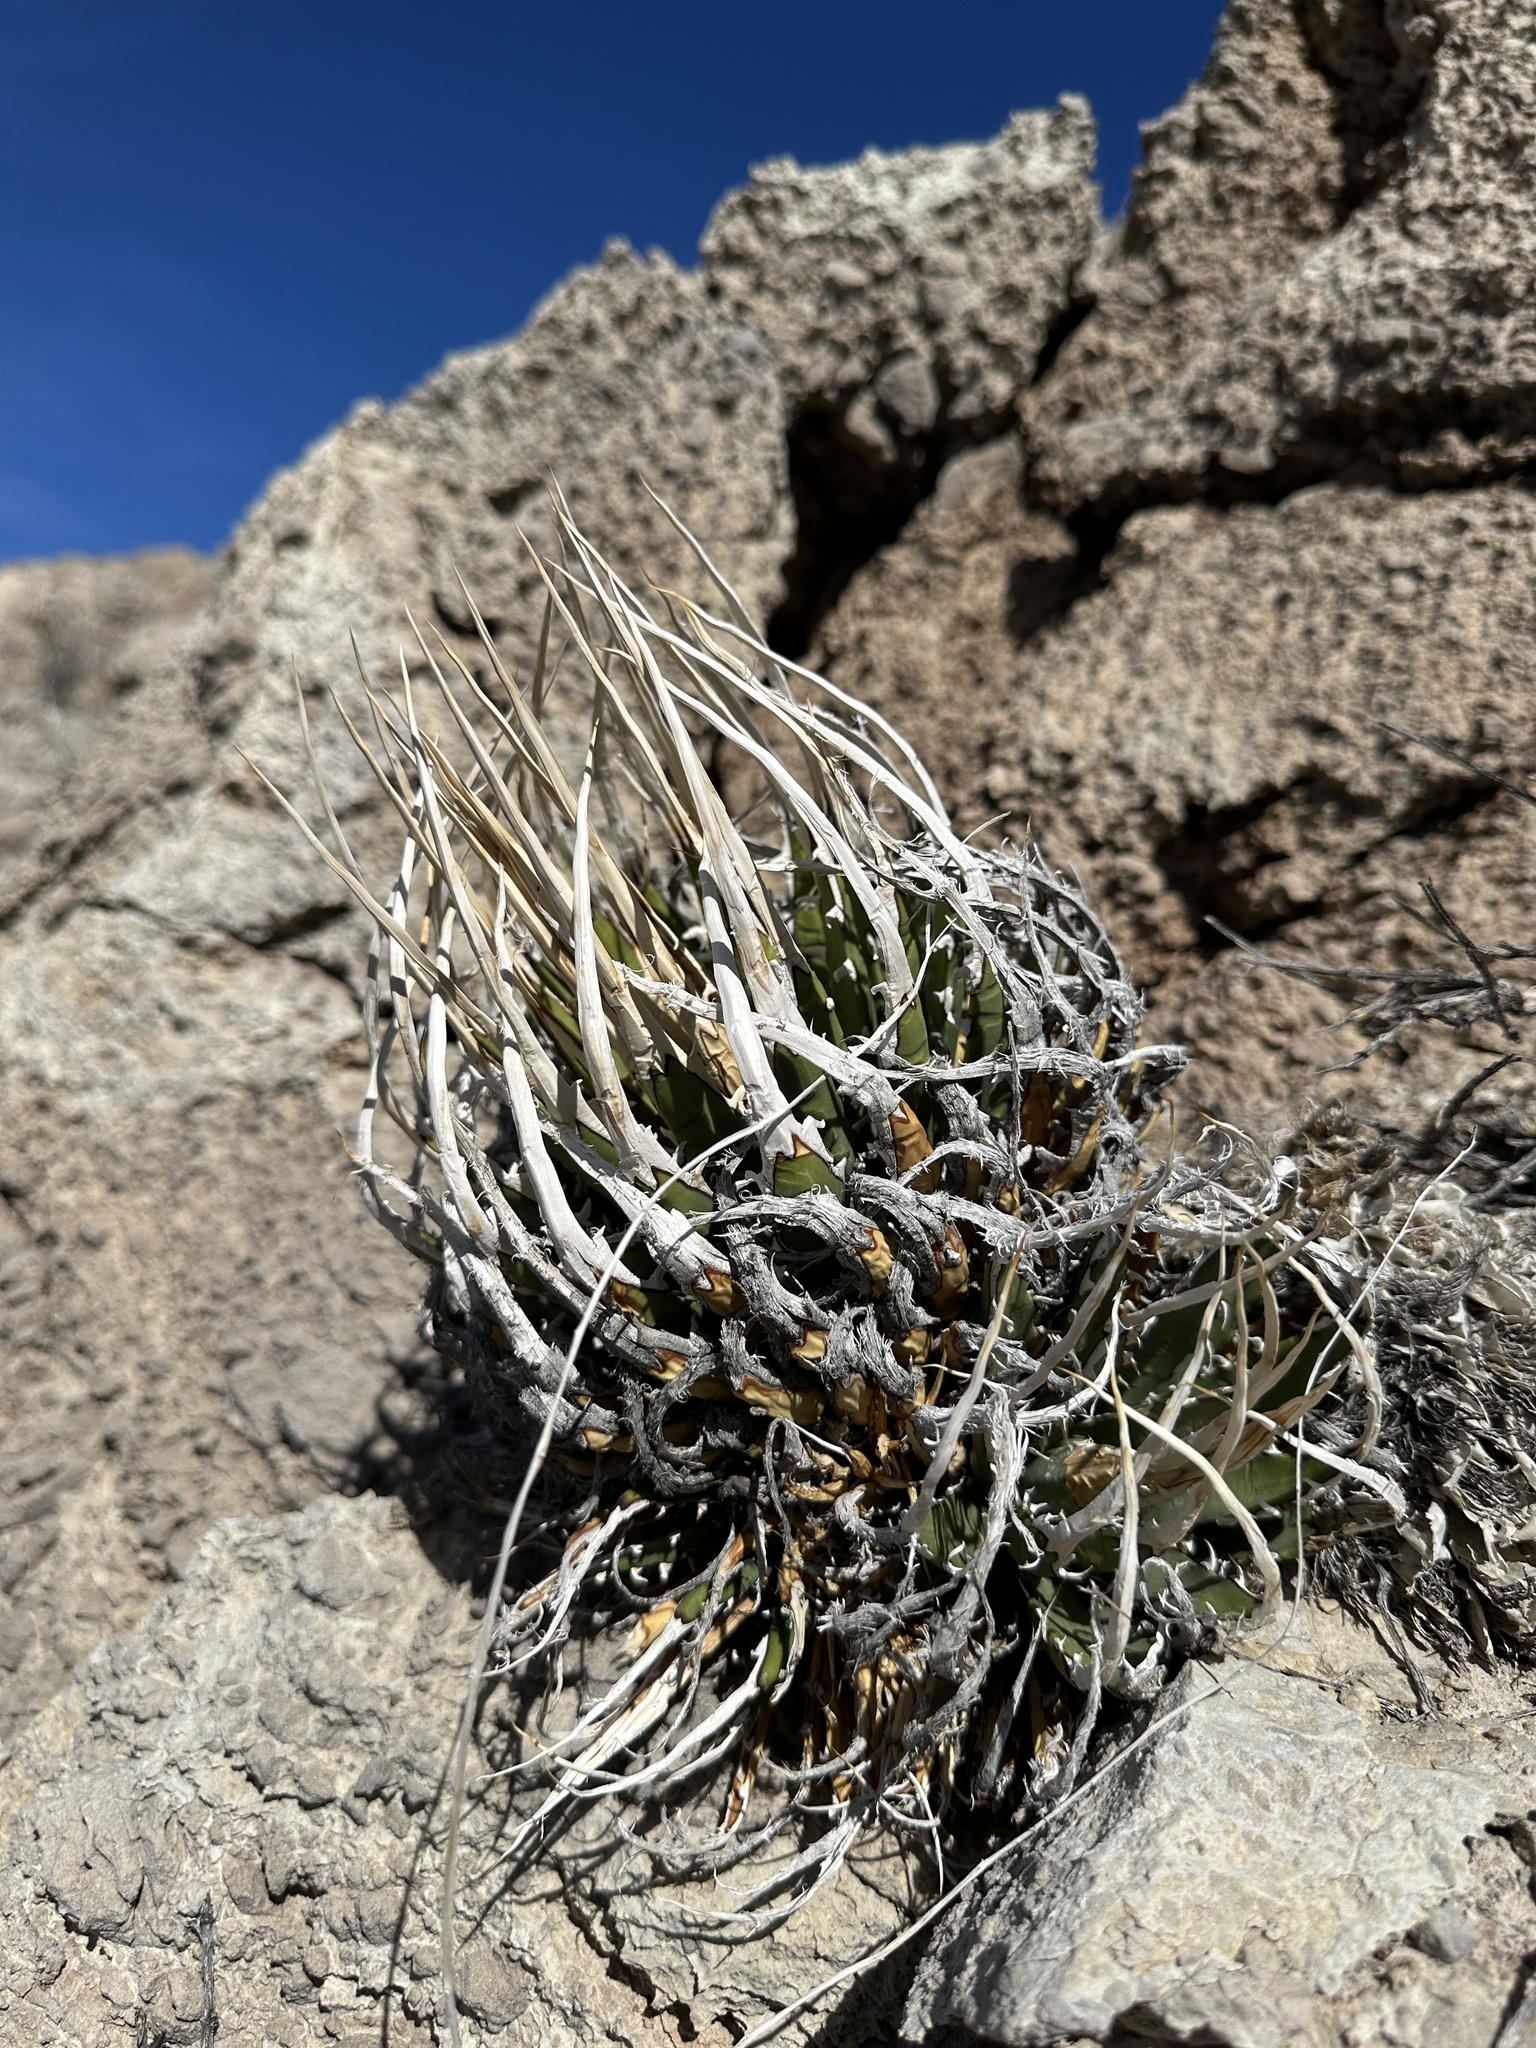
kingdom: Plantae
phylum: Tracheophyta
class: Liliopsida
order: Asparagales
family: Asparagaceae
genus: Agave
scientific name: Agave utahensis
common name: Utah agave
